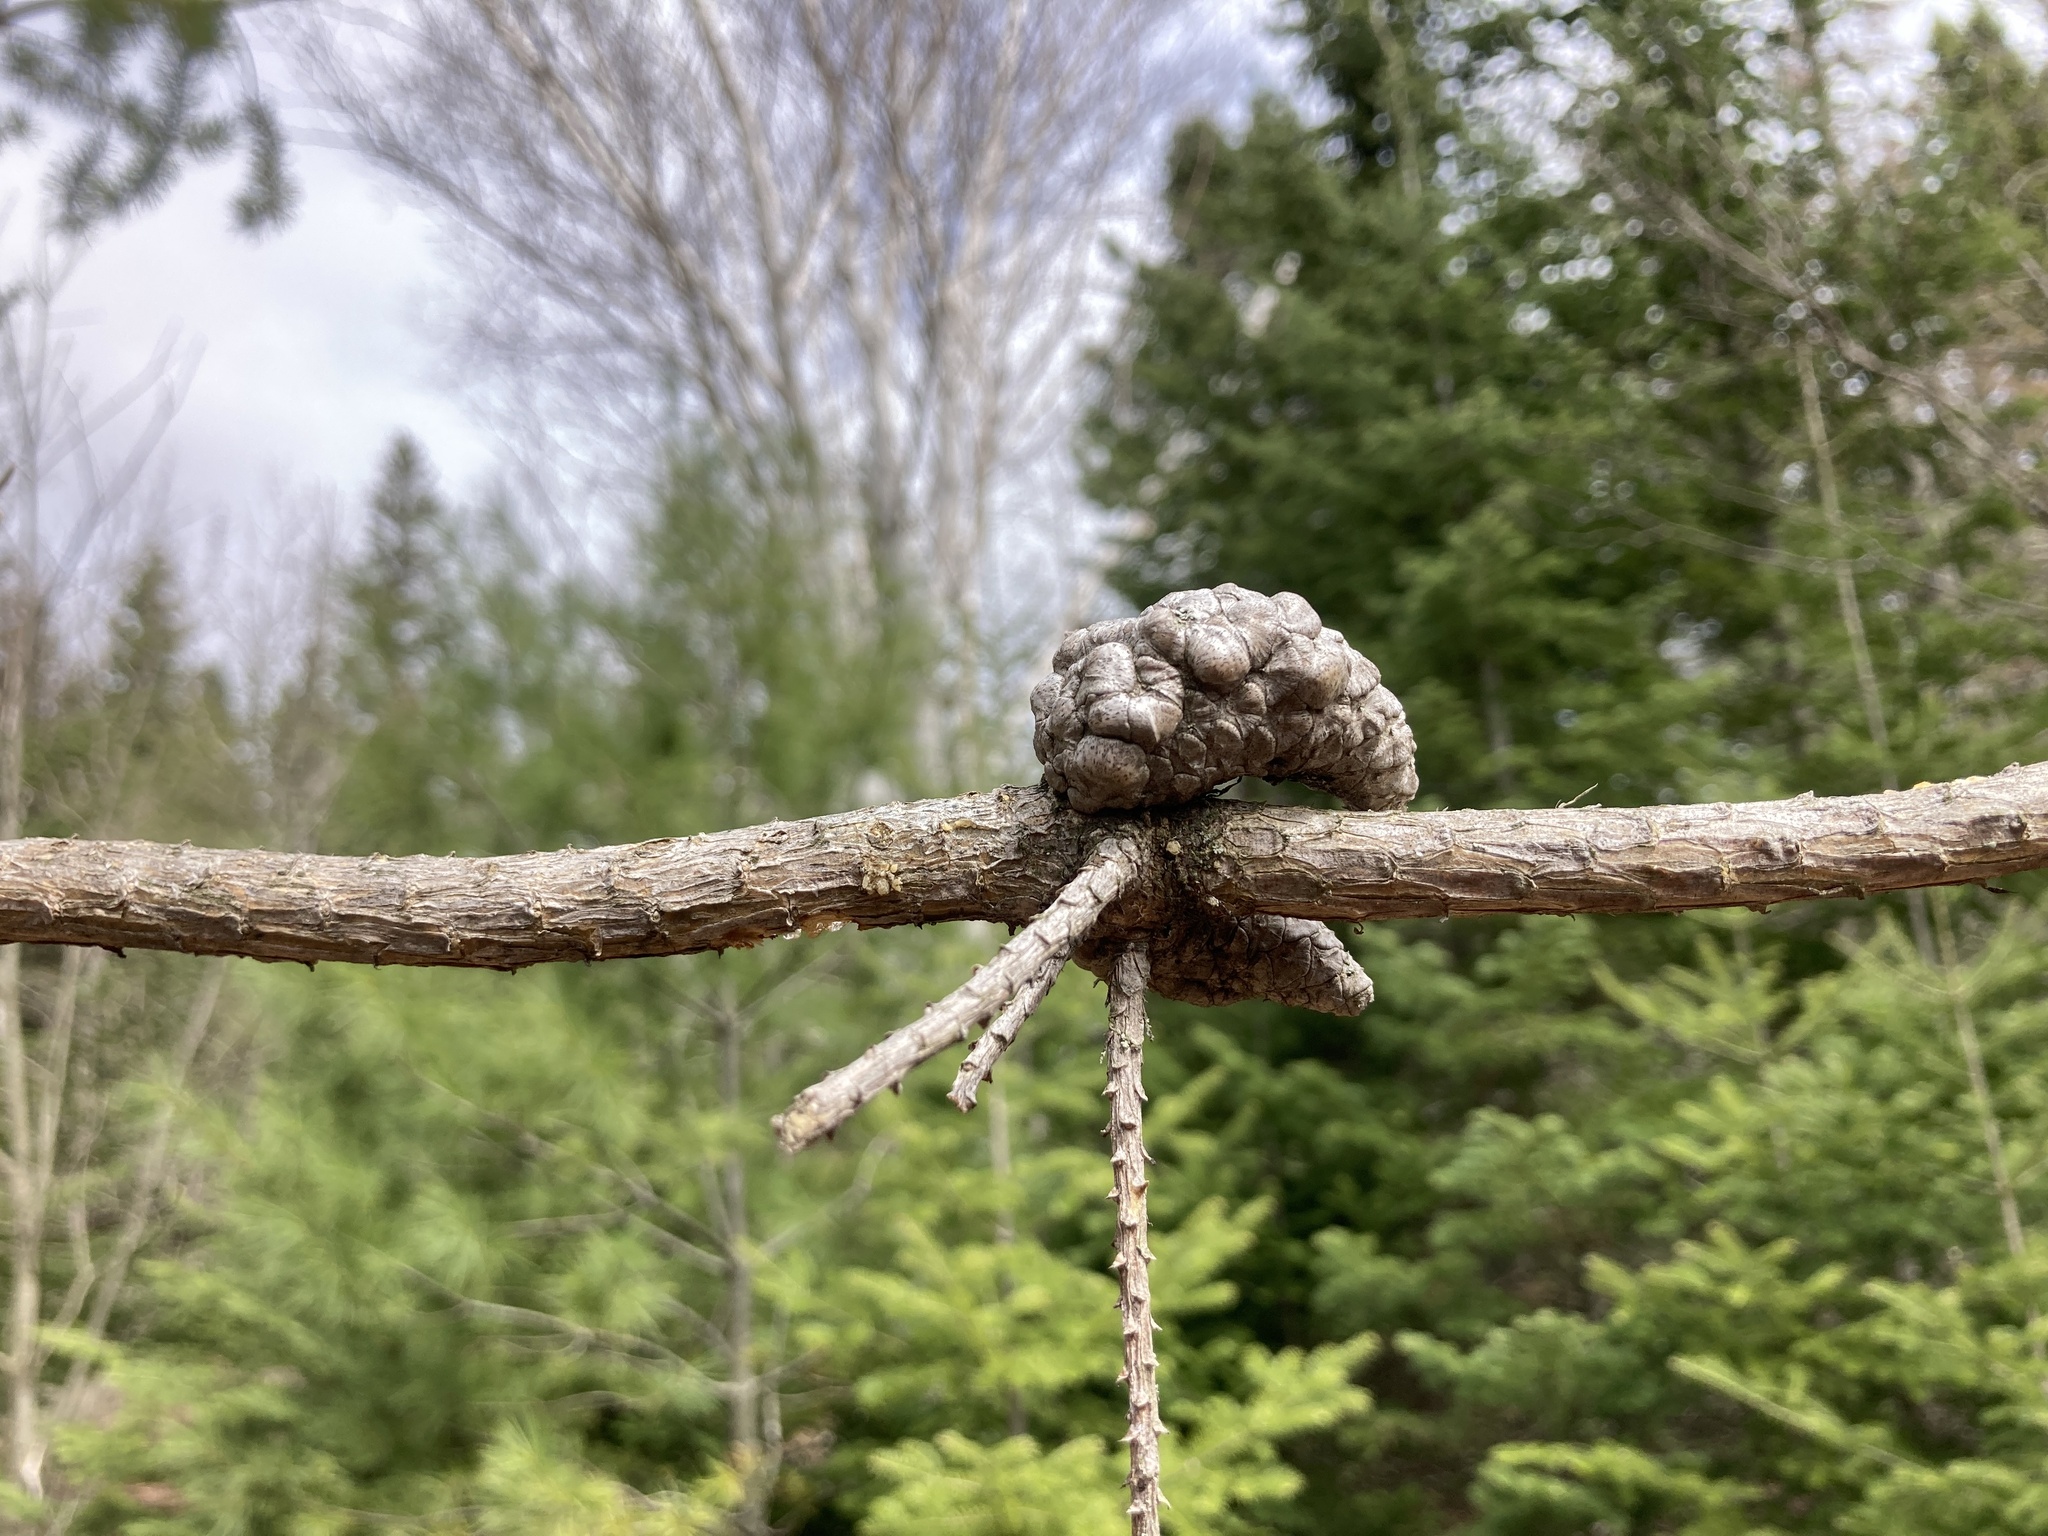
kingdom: Plantae
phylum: Tracheophyta
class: Pinopsida
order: Pinales
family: Pinaceae
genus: Pinus
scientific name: Pinus banksiana
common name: Jack pine
